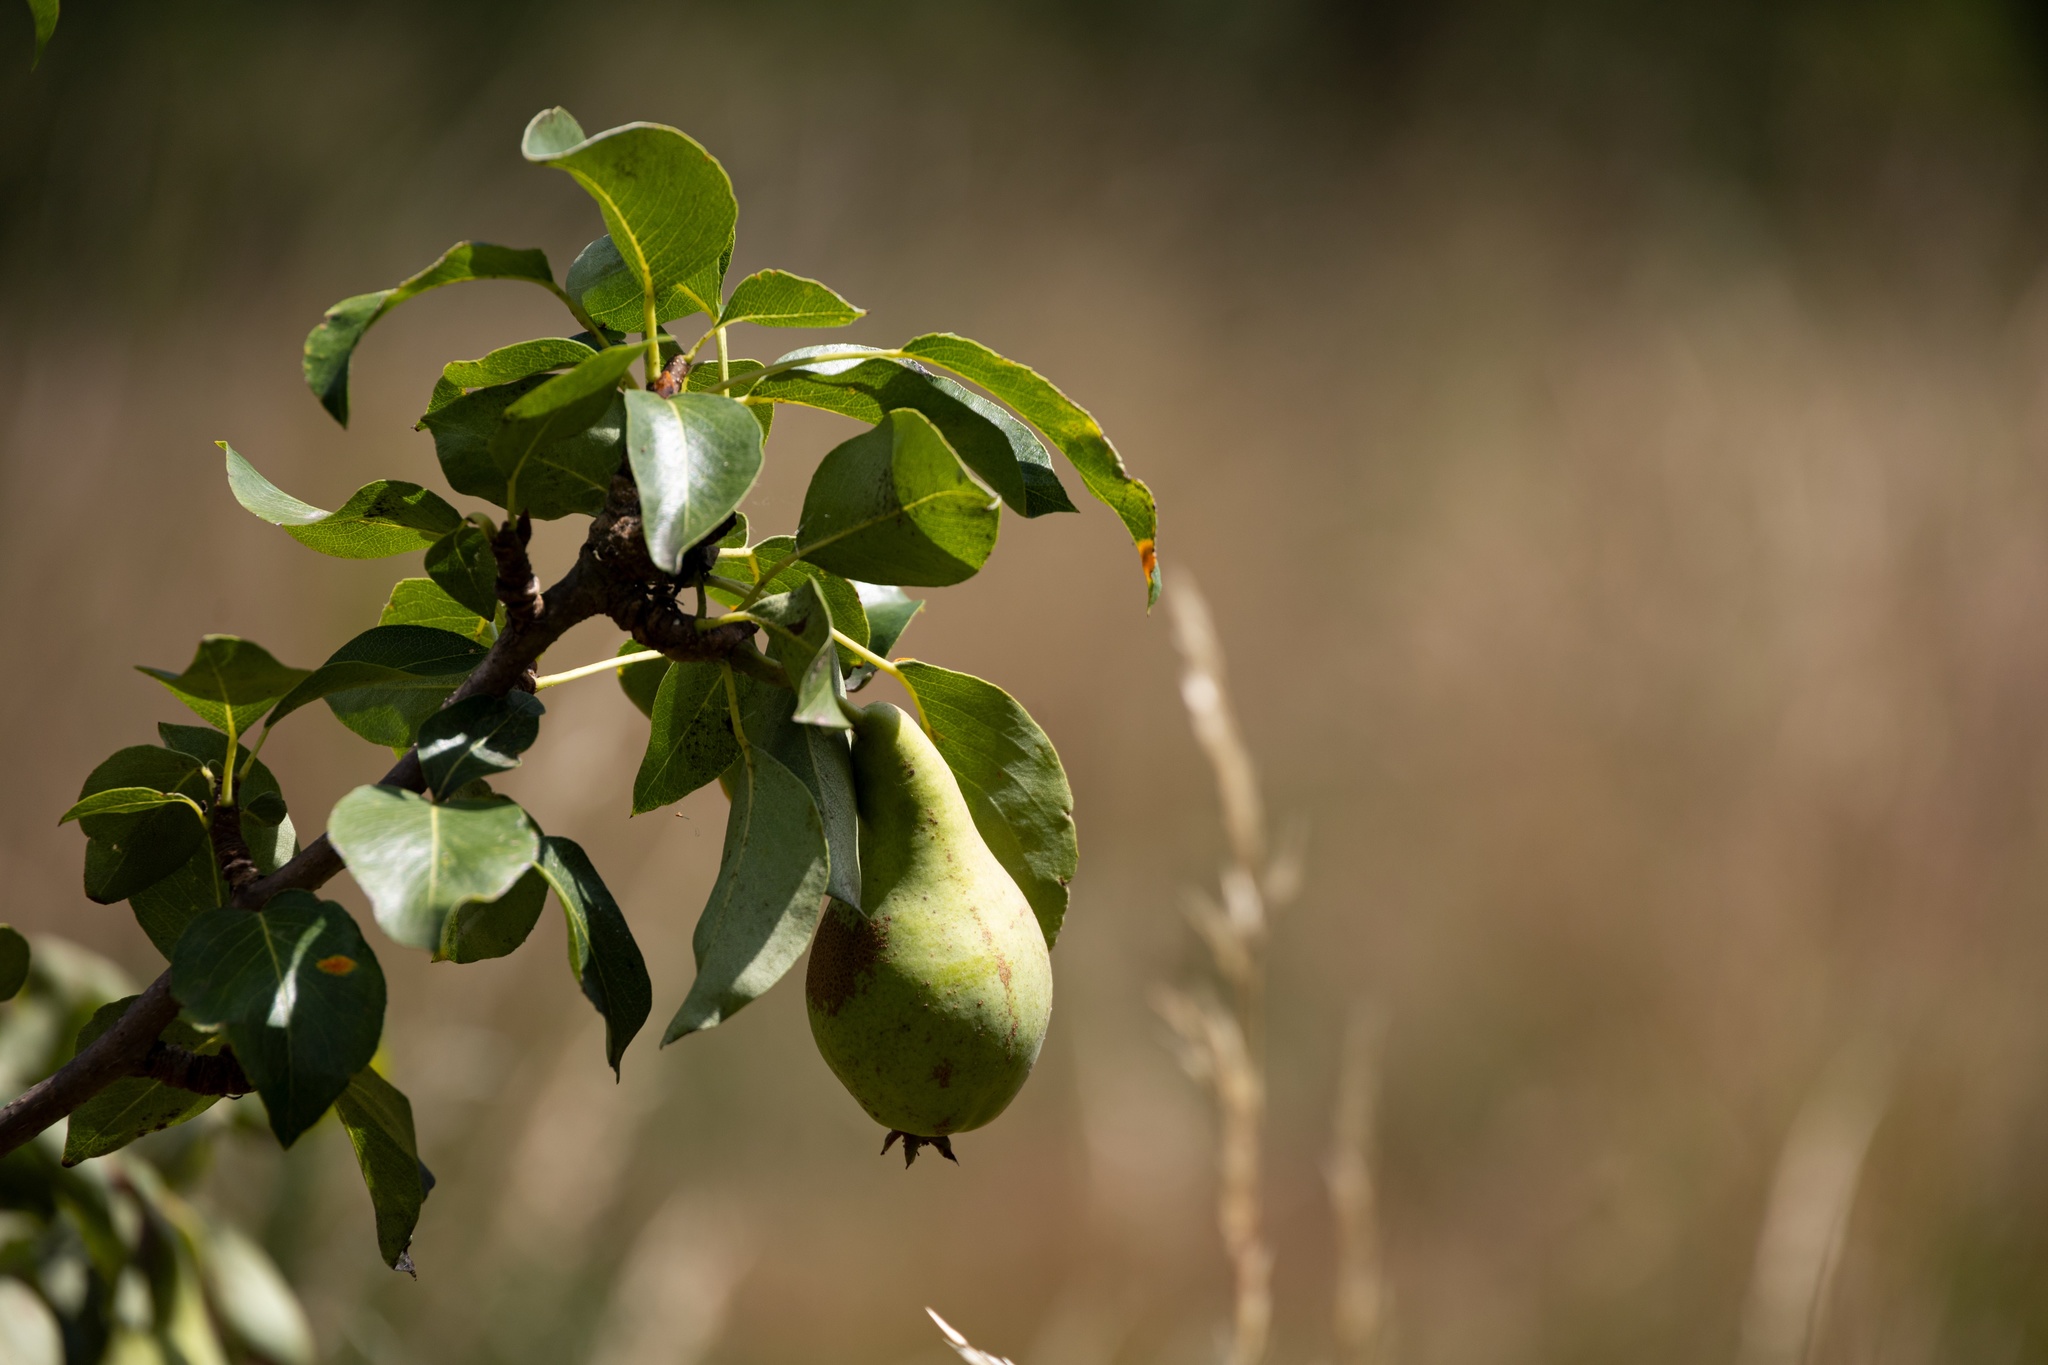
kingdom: Plantae
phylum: Tracheophyta
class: Magnoliopsida
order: Rosales
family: Rosaceae
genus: Pyrus
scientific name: Pyrus communis
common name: Pear
